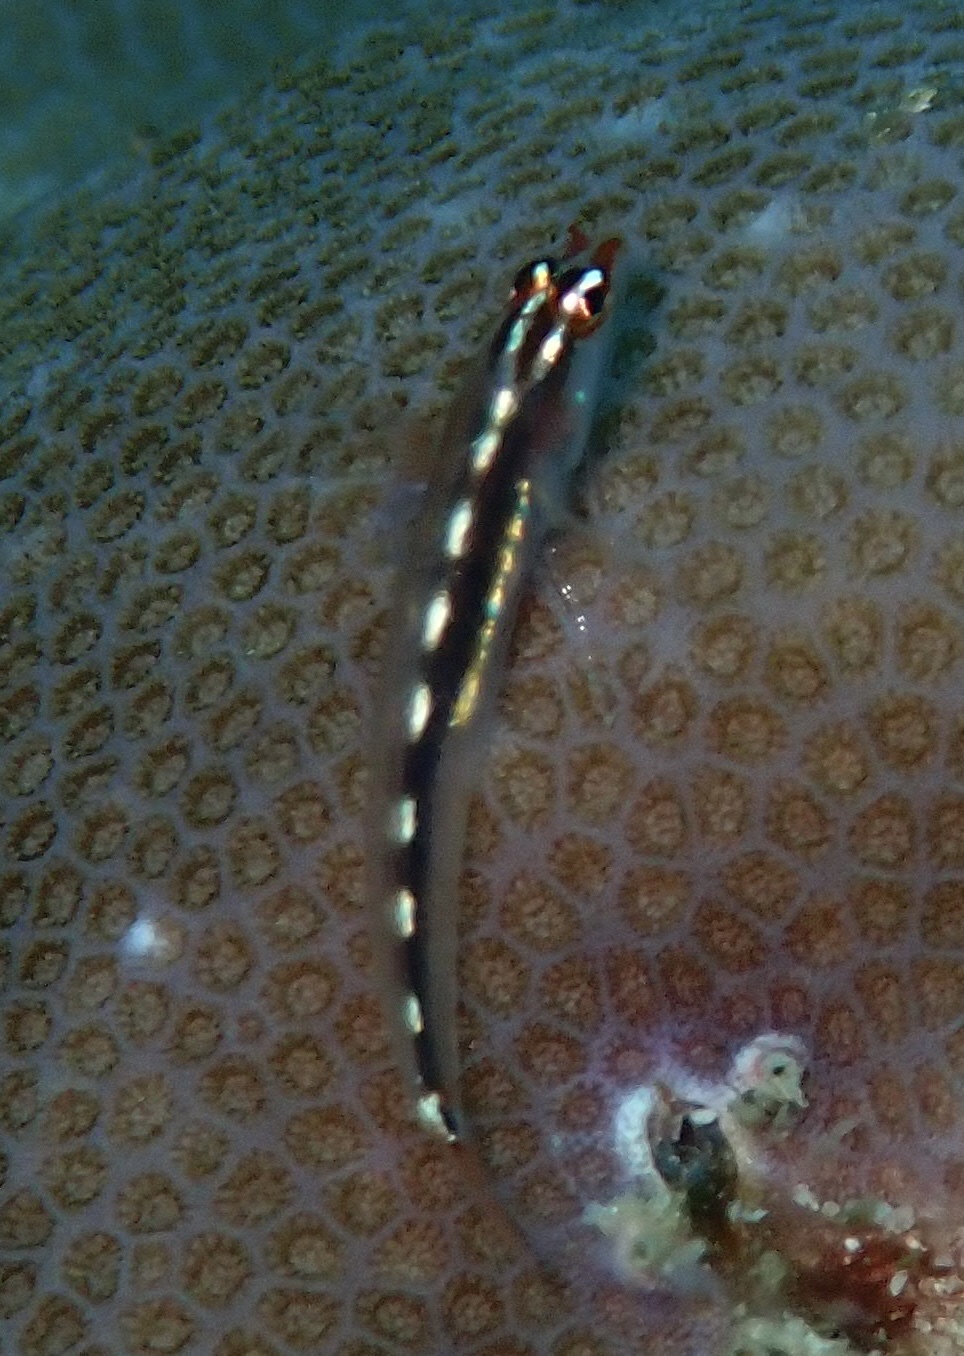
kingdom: Animalia
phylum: Chordata
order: Perciformes
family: Gobiidae
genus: Eviota
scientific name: Eviota sebreei
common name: Sebree's pygmy goby
